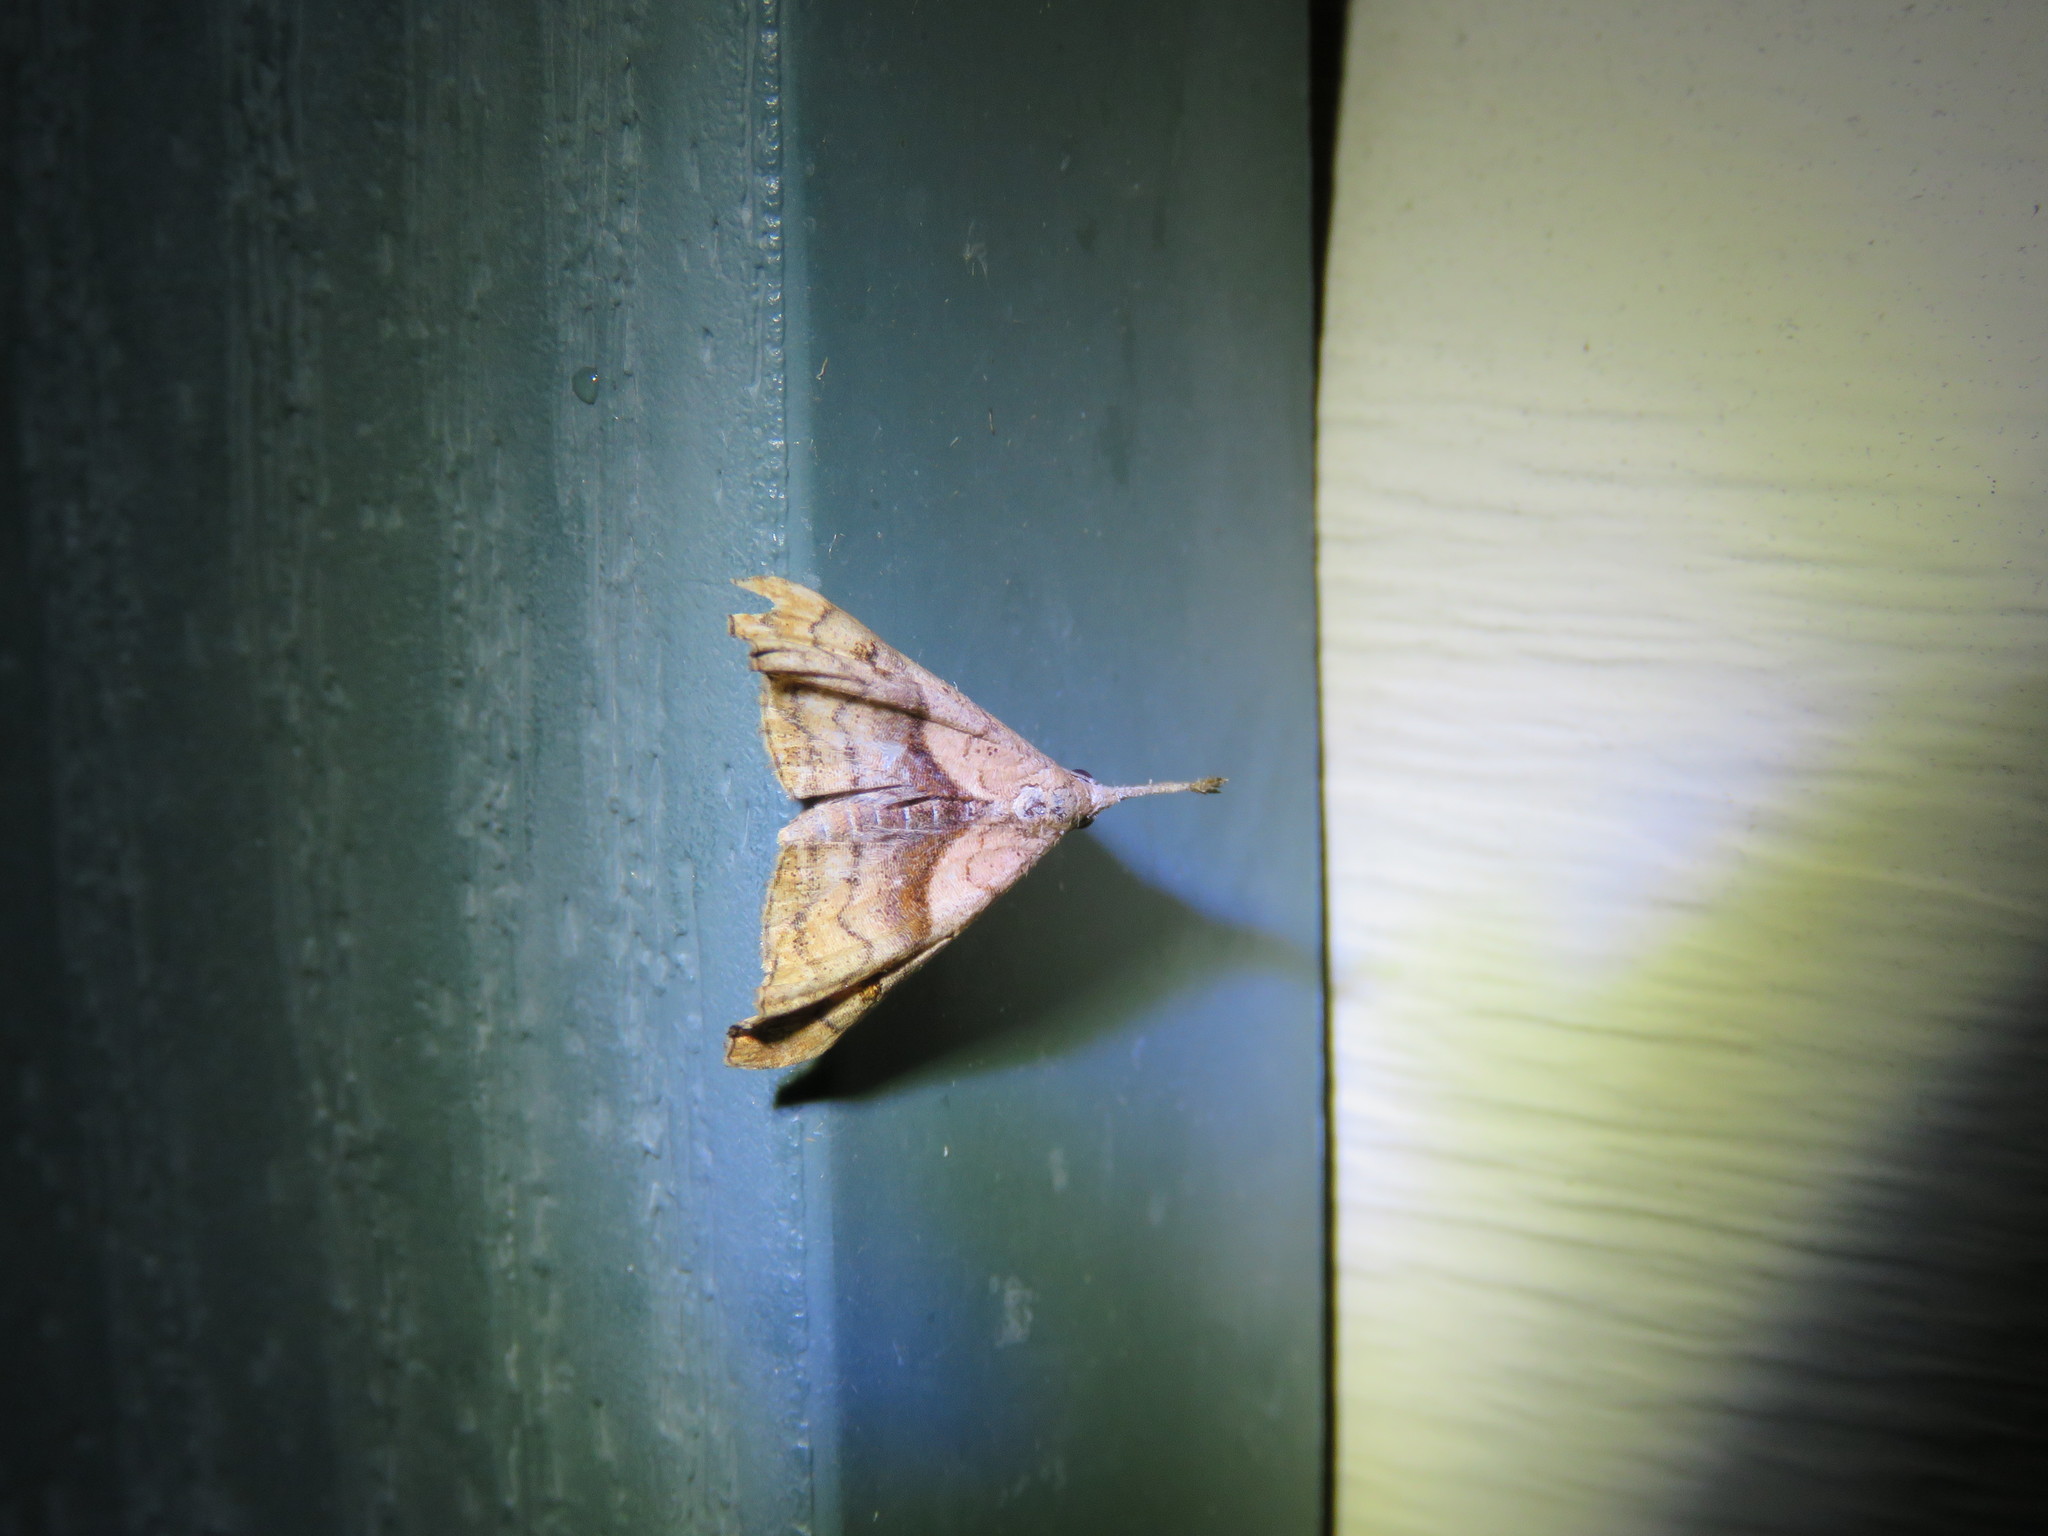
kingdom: Animalia
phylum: Arthropoda
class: Insecta
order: Lepidoptera
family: Erebidae
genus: Palthis
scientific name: Palthis angulalis
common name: Dark-spotted palthis moth
